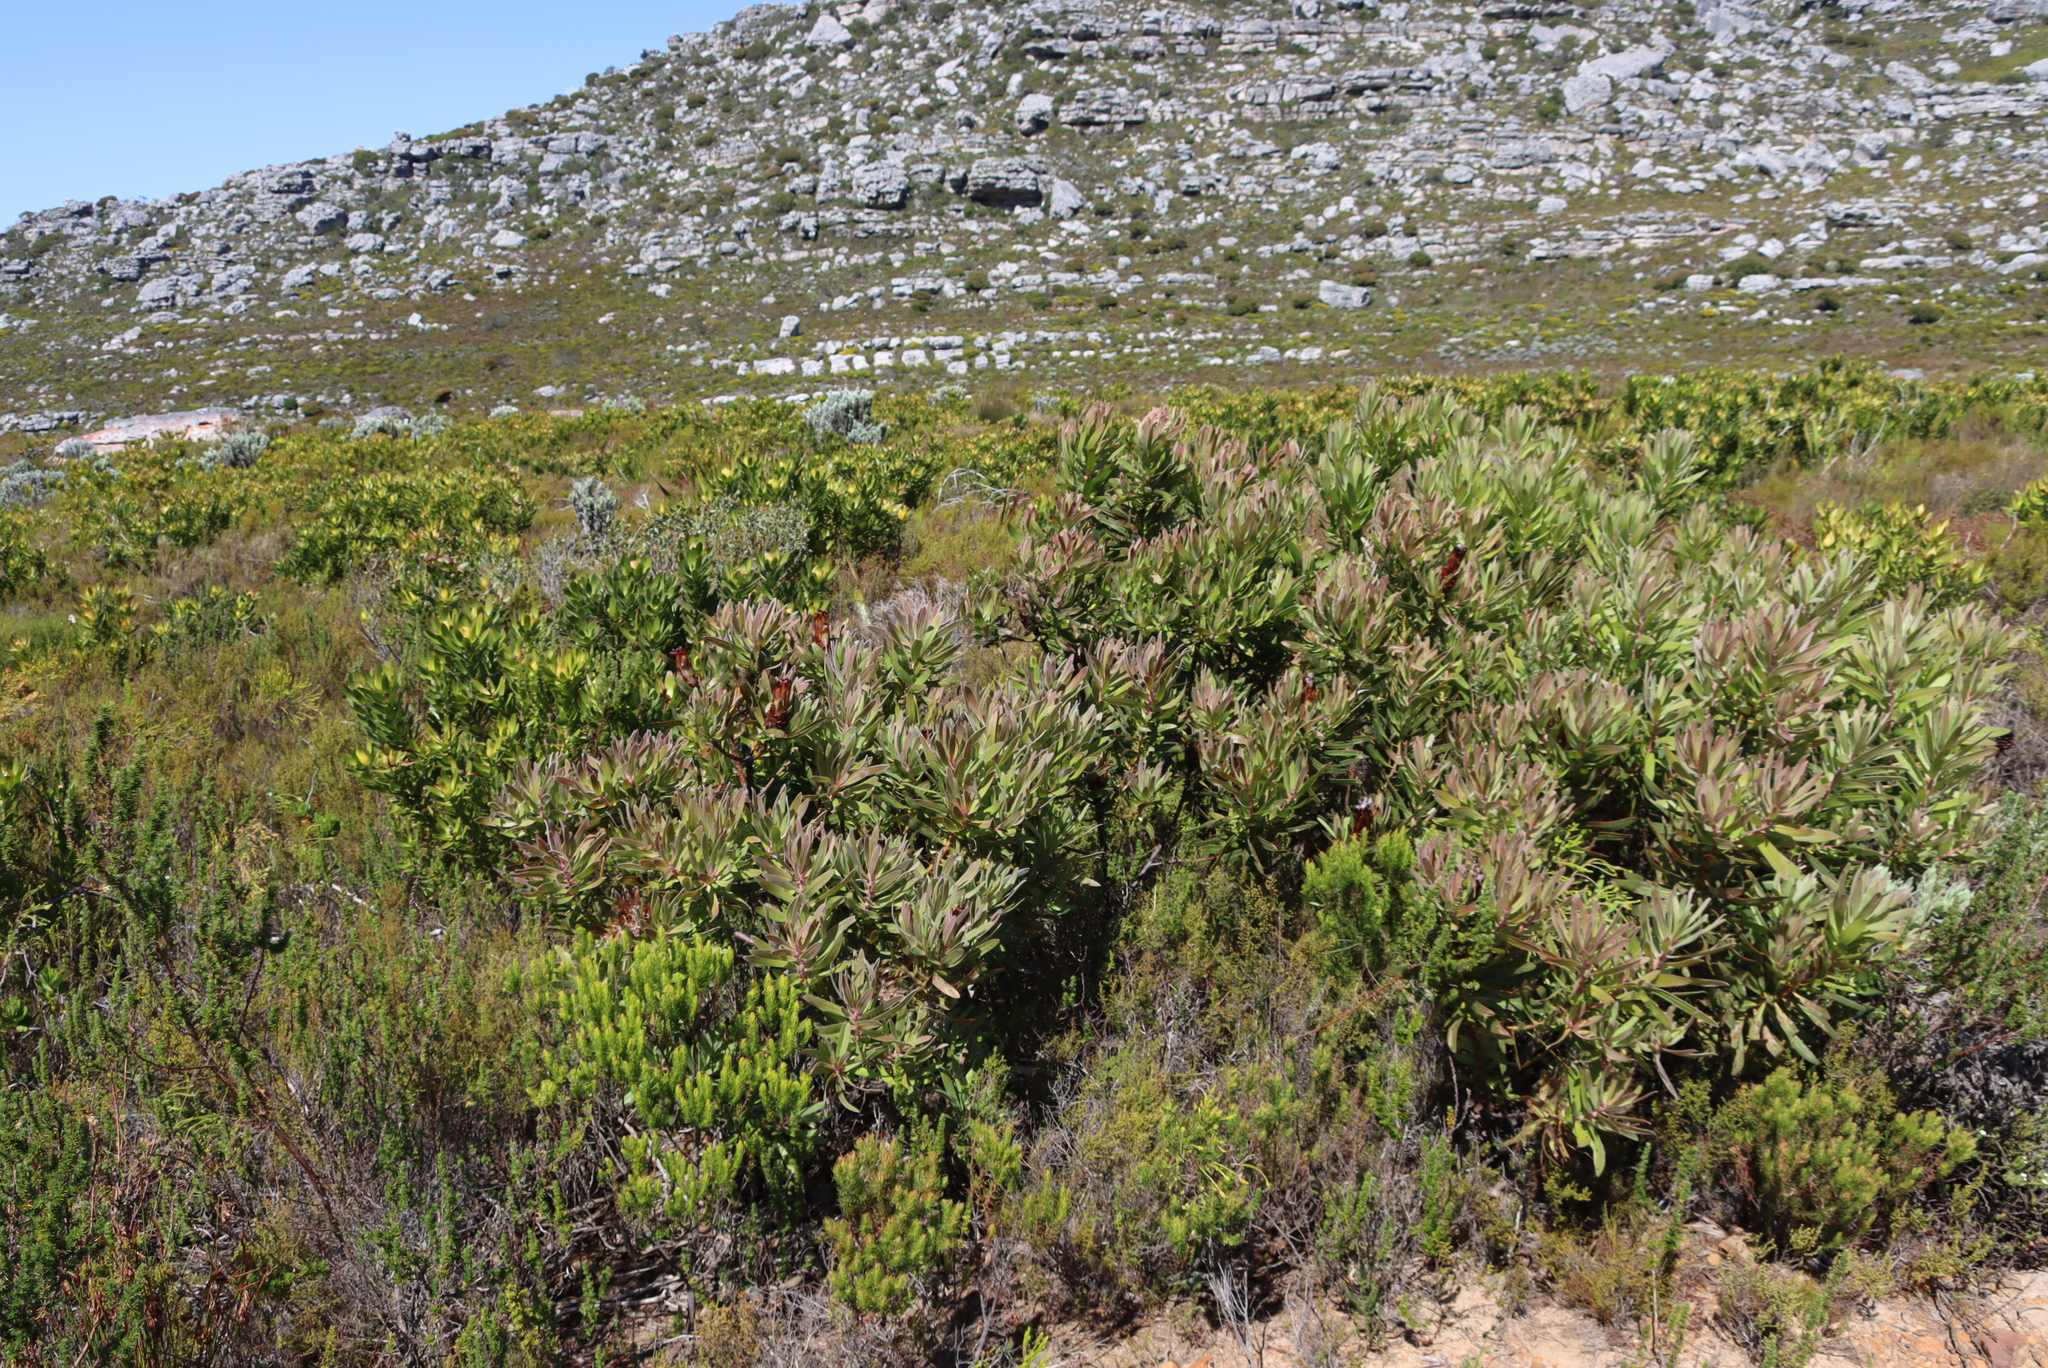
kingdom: Plantae
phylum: Tracheophyta
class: Magnoliopsida
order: Proteales
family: Proteaceae
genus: Protea
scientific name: Protea lepidocarpodendron
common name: Black-bearded protea
